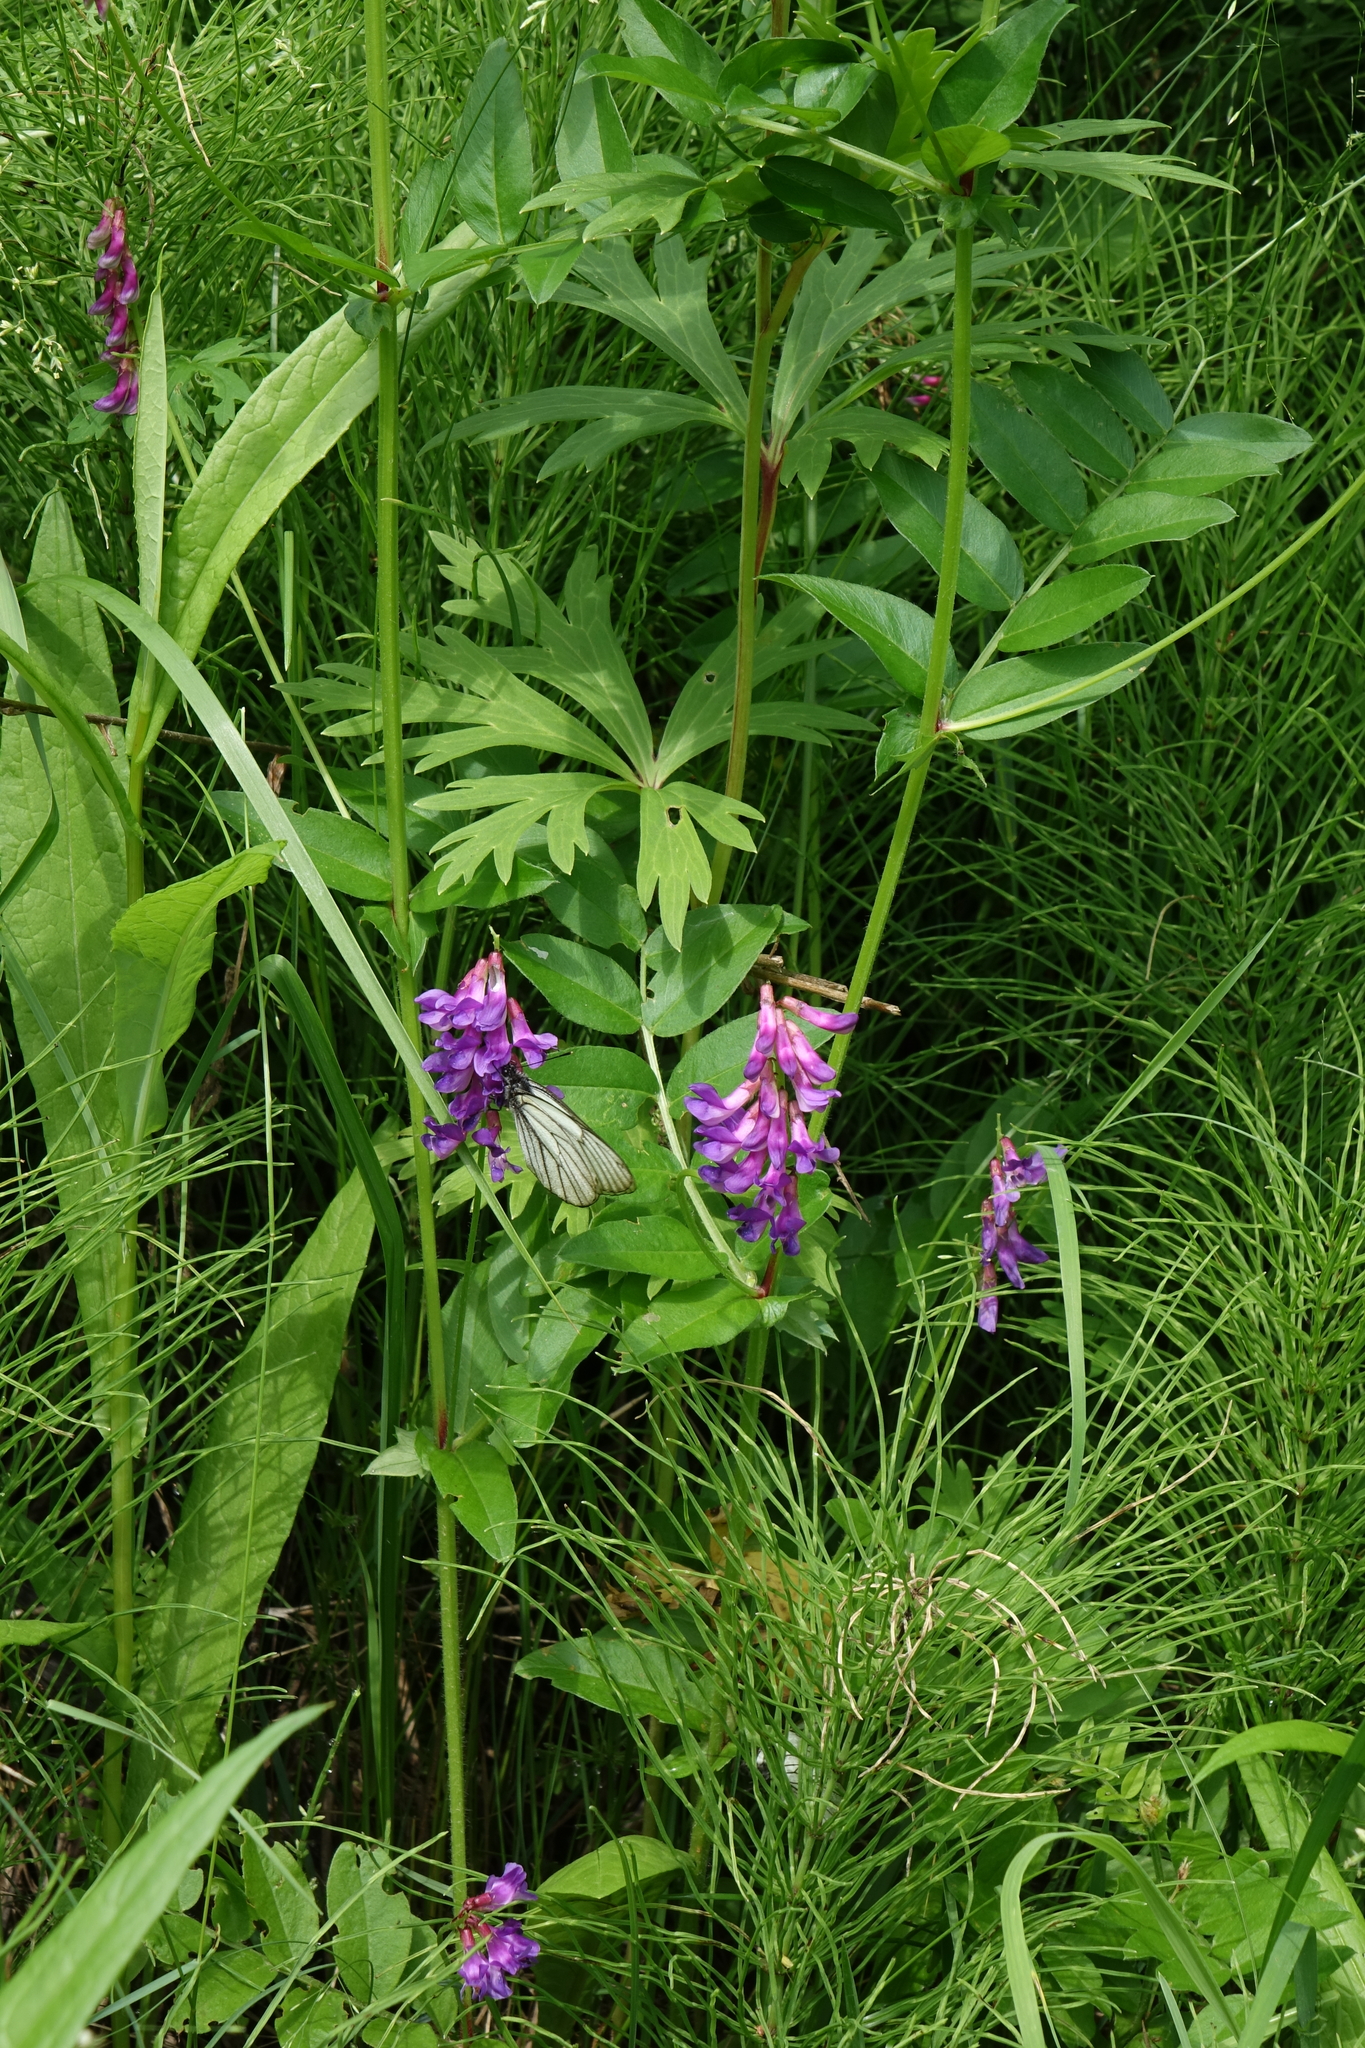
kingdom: Plantae
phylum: Tracheophyta
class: Magnoliopsida
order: Fabales
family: Fabaceae
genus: Vicia
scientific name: Vicia amoena
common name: Cheder ebs
